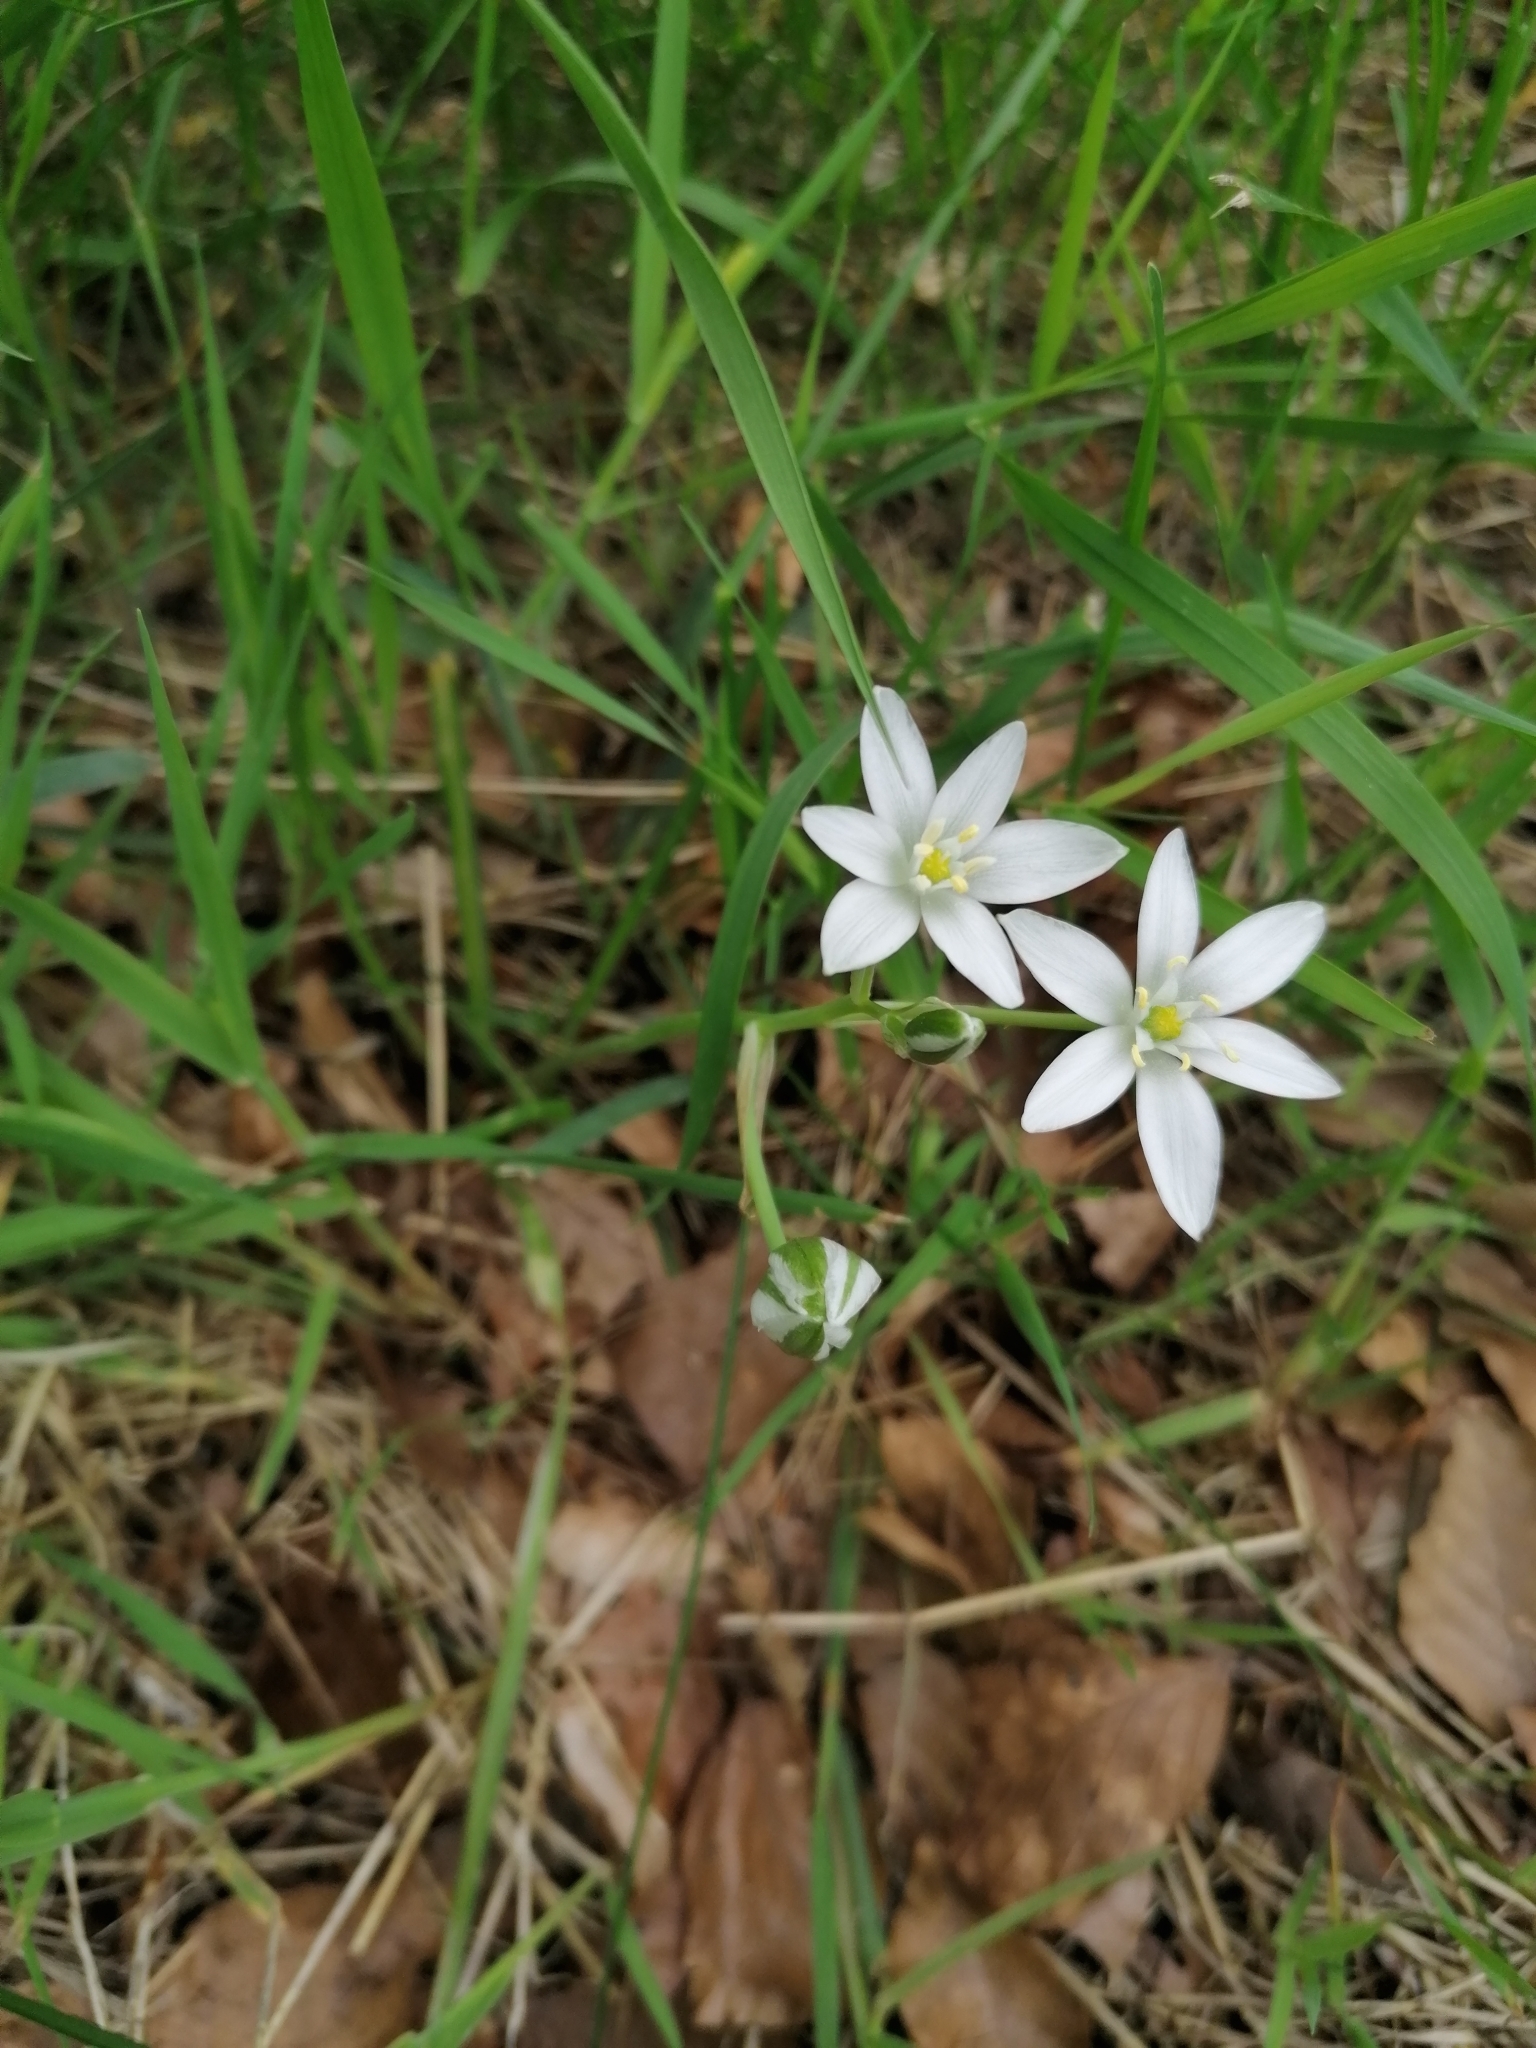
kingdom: Plantae
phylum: Tracheophyta
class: Liliopsida
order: Asparagales
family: Asparagaceae
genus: Ornithogalum
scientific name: Ornithogalum umbellatum
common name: Garden star-of-bethlehem
